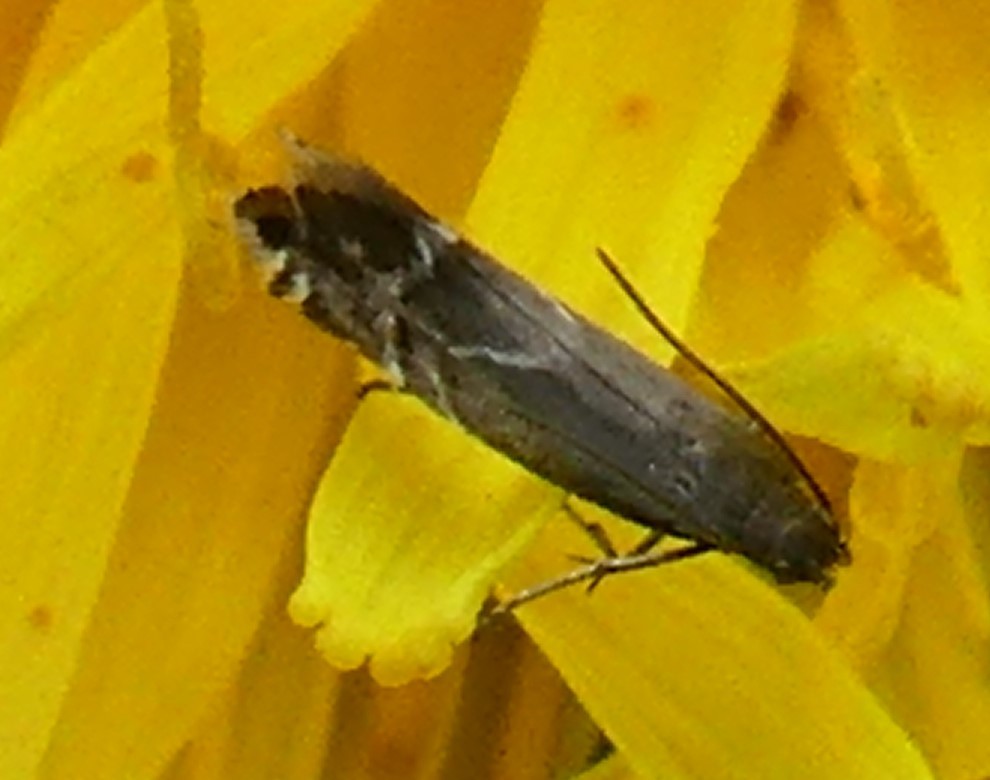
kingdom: Animalia
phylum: Arthropoda
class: Insecta
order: Lepidoptera
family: Glyphipterigidae
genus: Glyphipterix
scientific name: Glyphipterix simpliciella
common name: Cocksfoot moth
